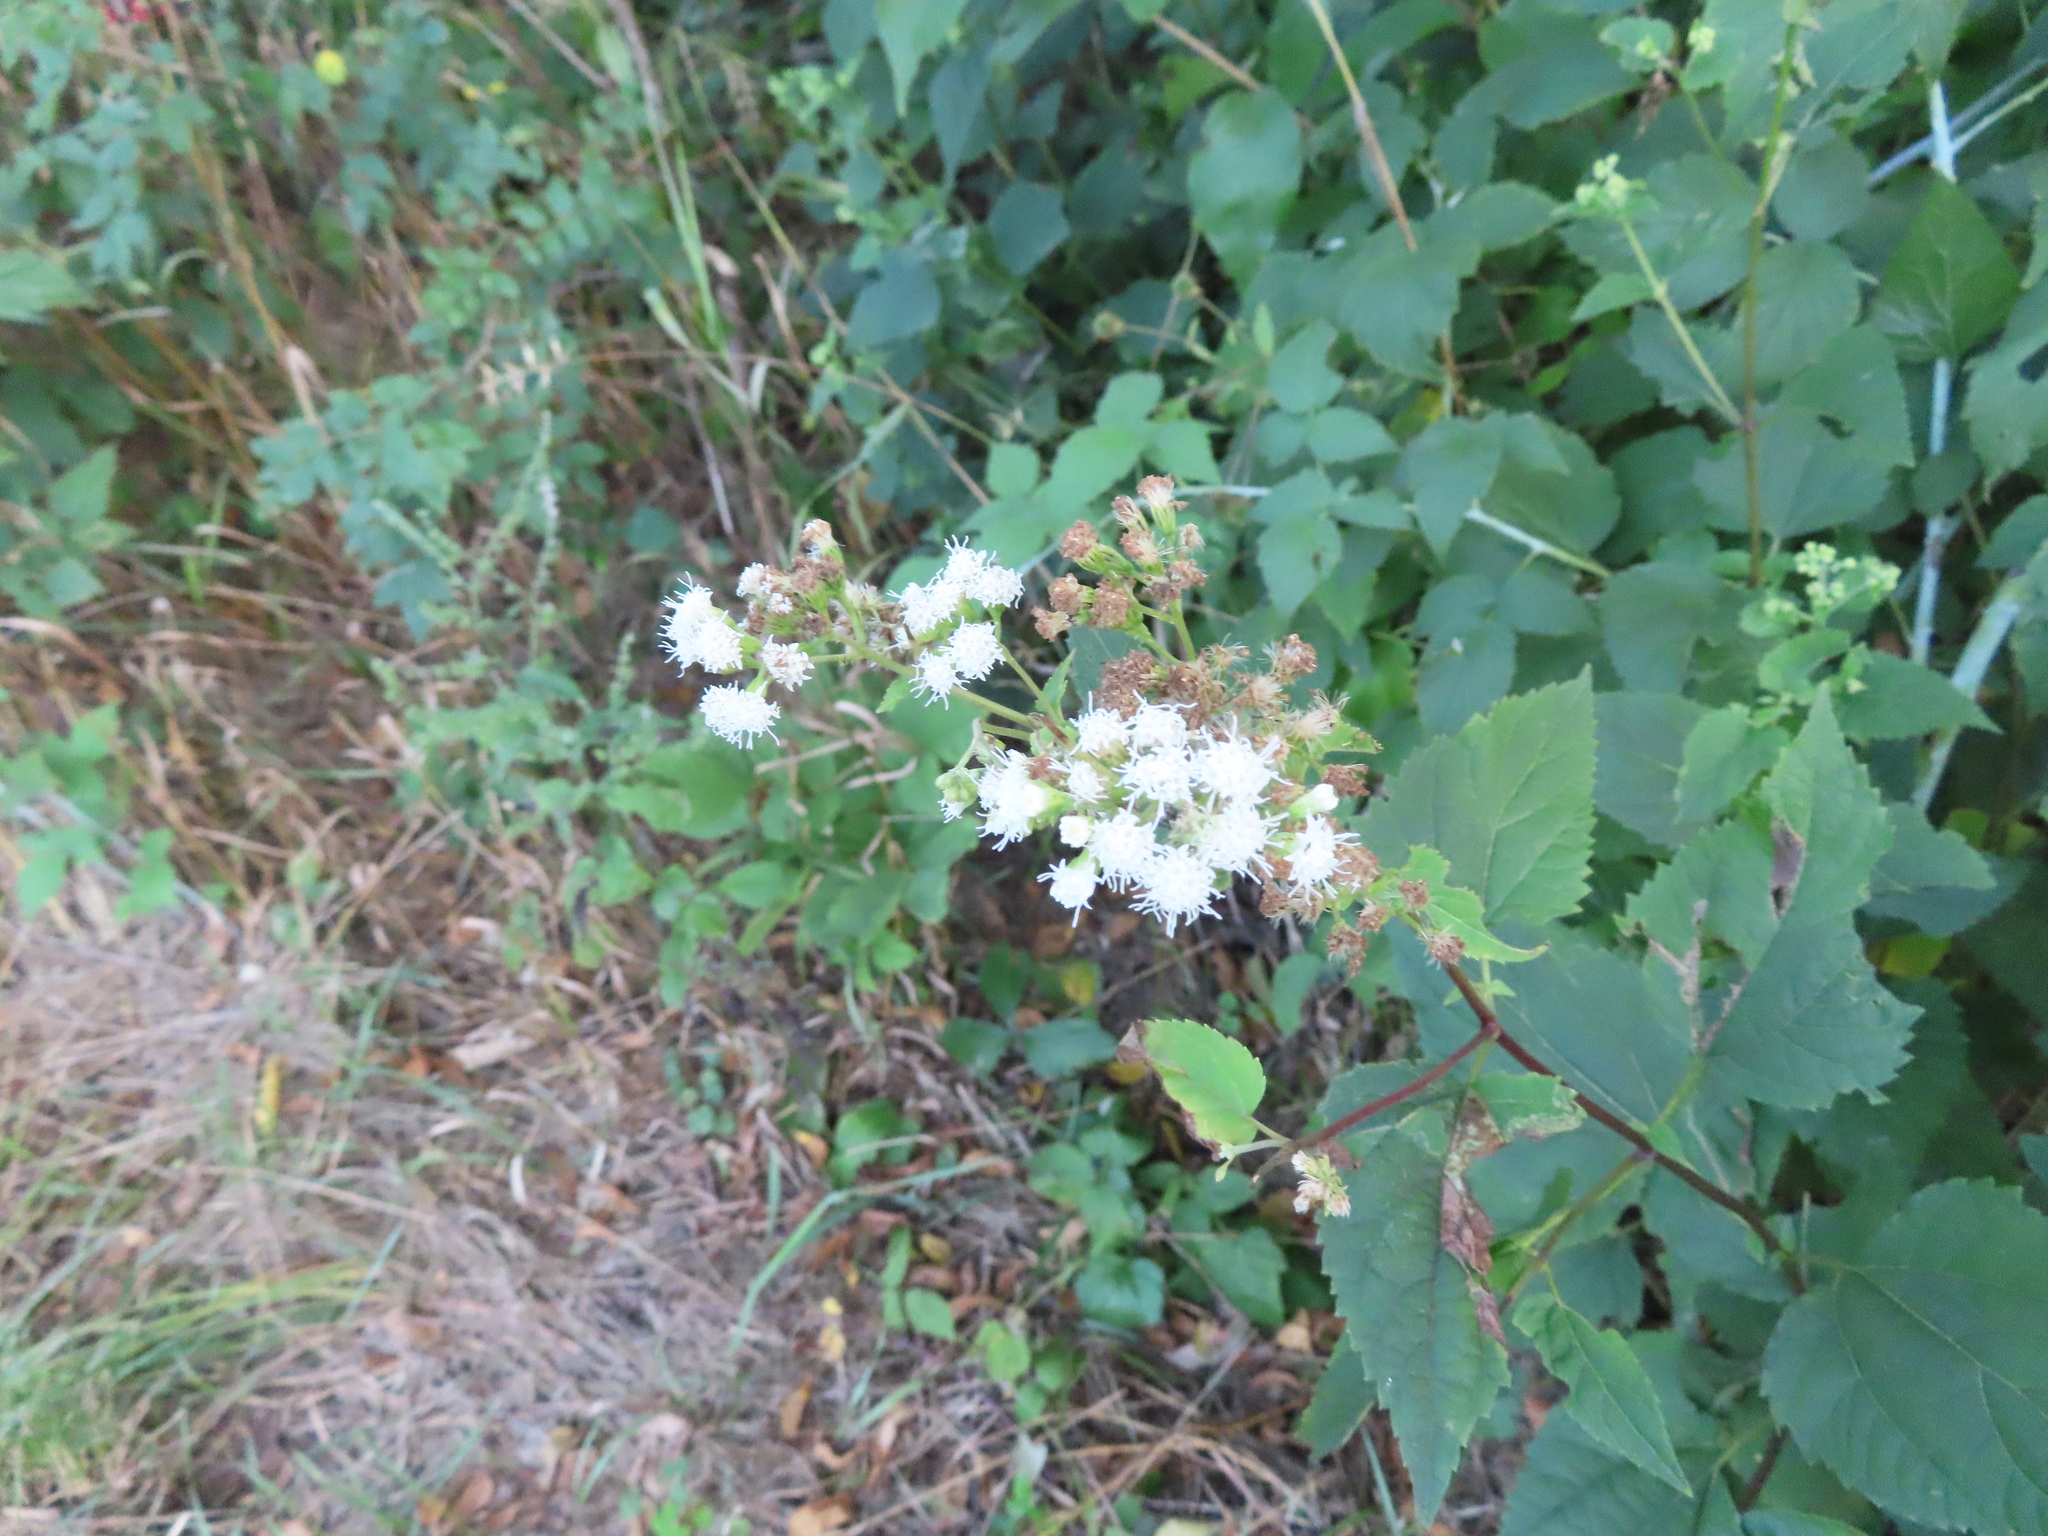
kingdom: Plantae
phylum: Tracheophyta
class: Magnoliopsida
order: Asterales
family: Asteraceae
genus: Ageratina
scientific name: Ageratina altissima
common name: White snakeroot
